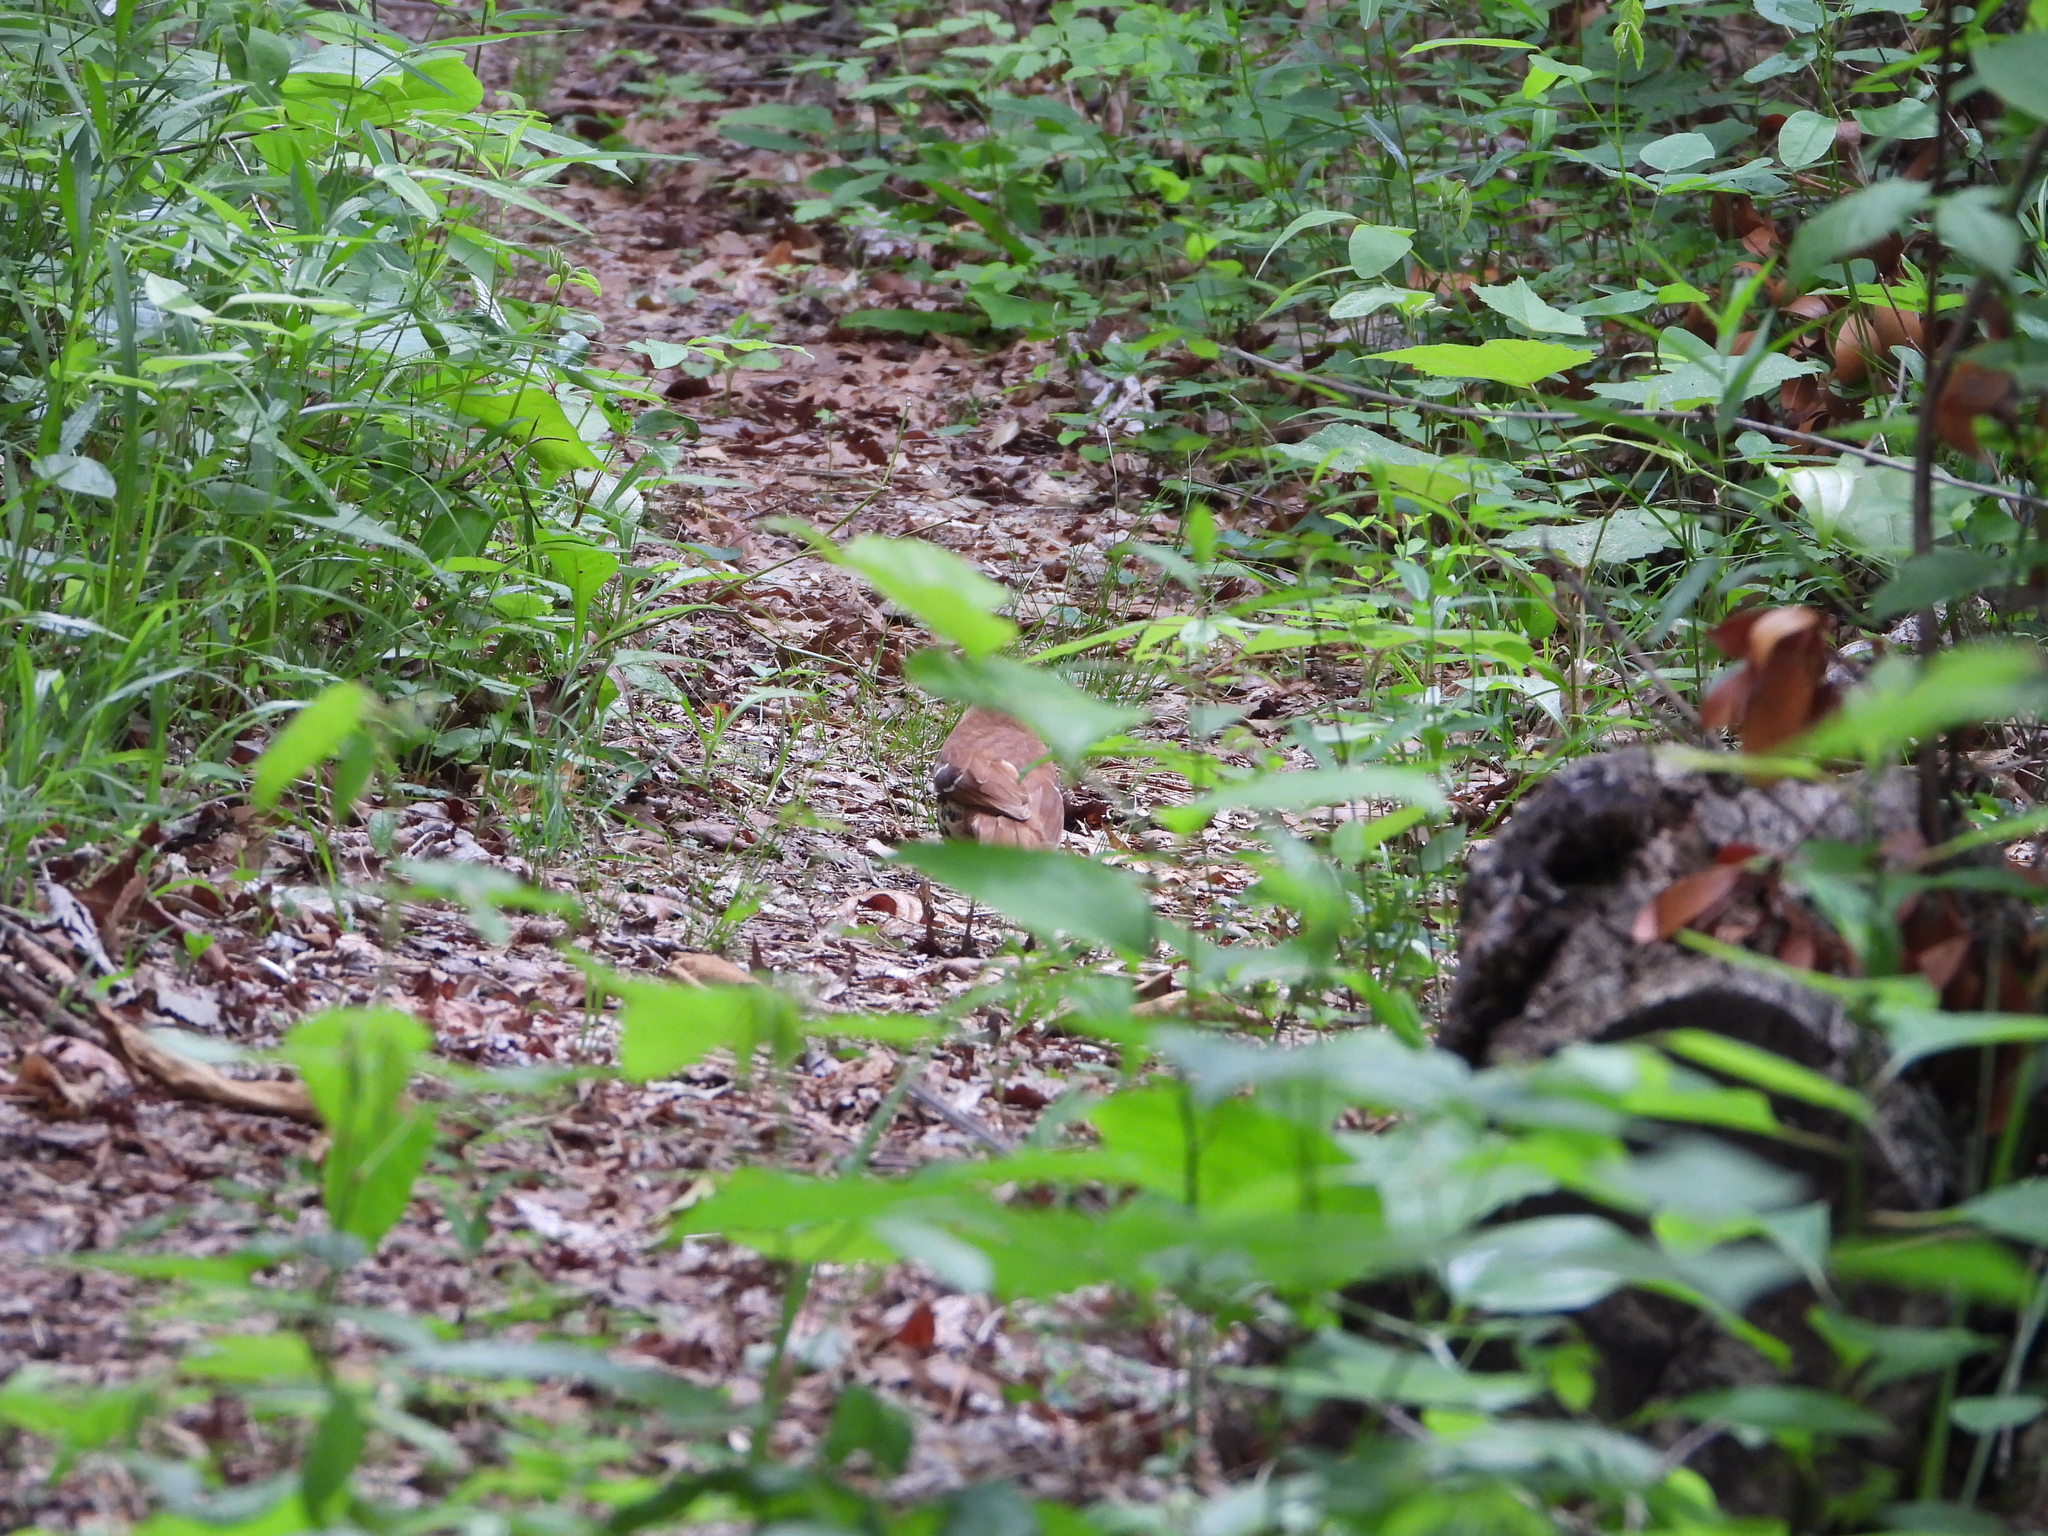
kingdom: Animalia
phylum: Chordata
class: Aves
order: Passeriformes
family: Turdidae
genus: Hylocichla
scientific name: Hylocichla mustelina
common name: Wood thrush
